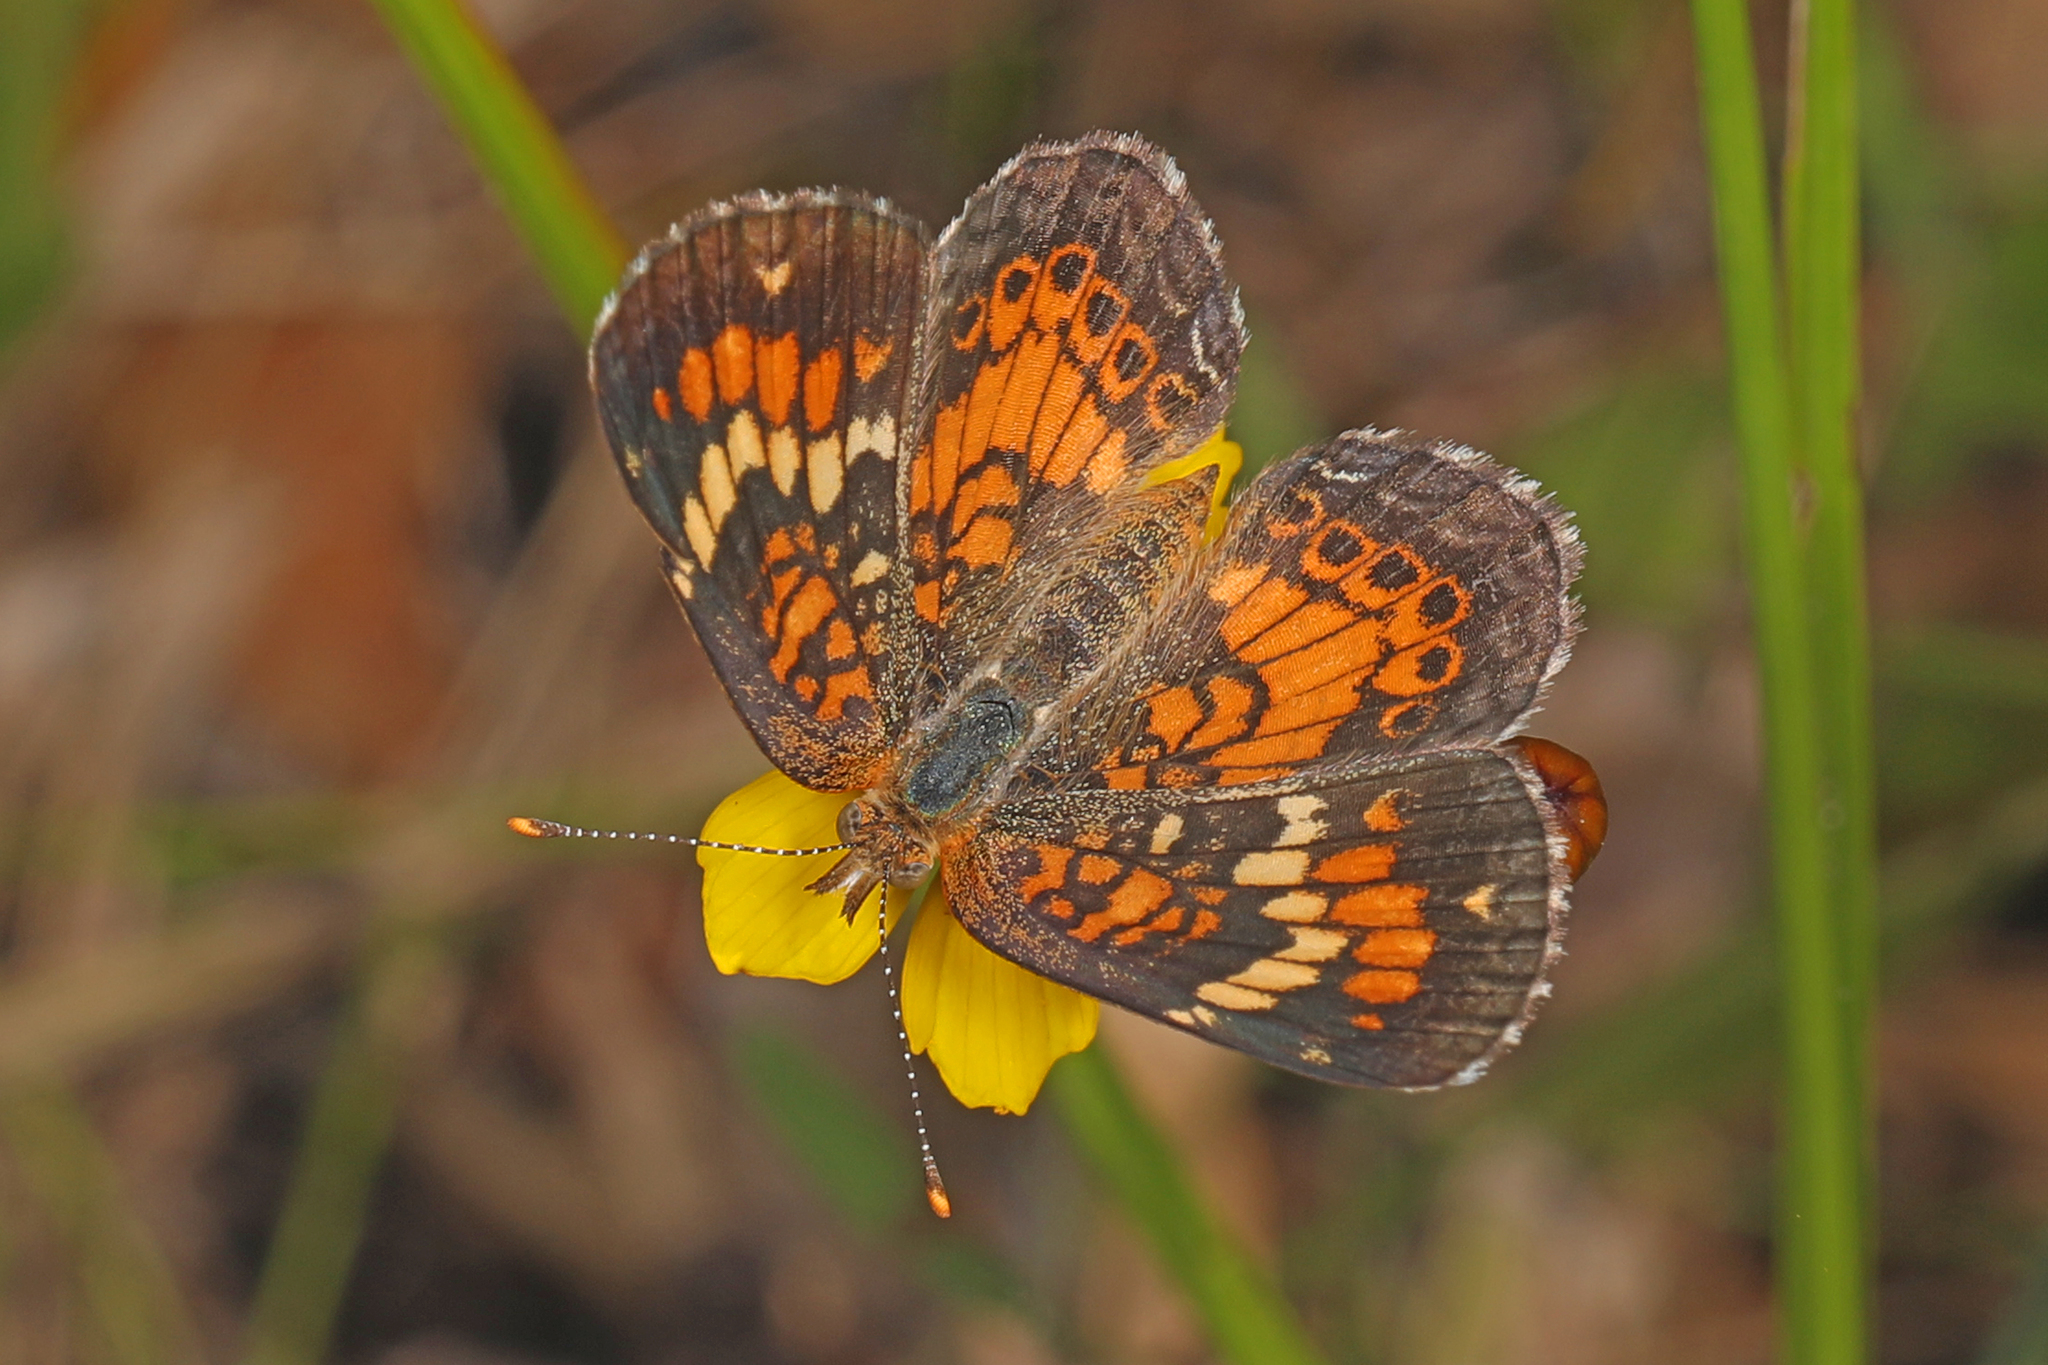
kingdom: Animalia
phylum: Arthropoda
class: Insecta
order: Lepidoptera
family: Nymphalidae
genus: Phyciodes
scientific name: Phyciodes phaon
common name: Phaon crescent
